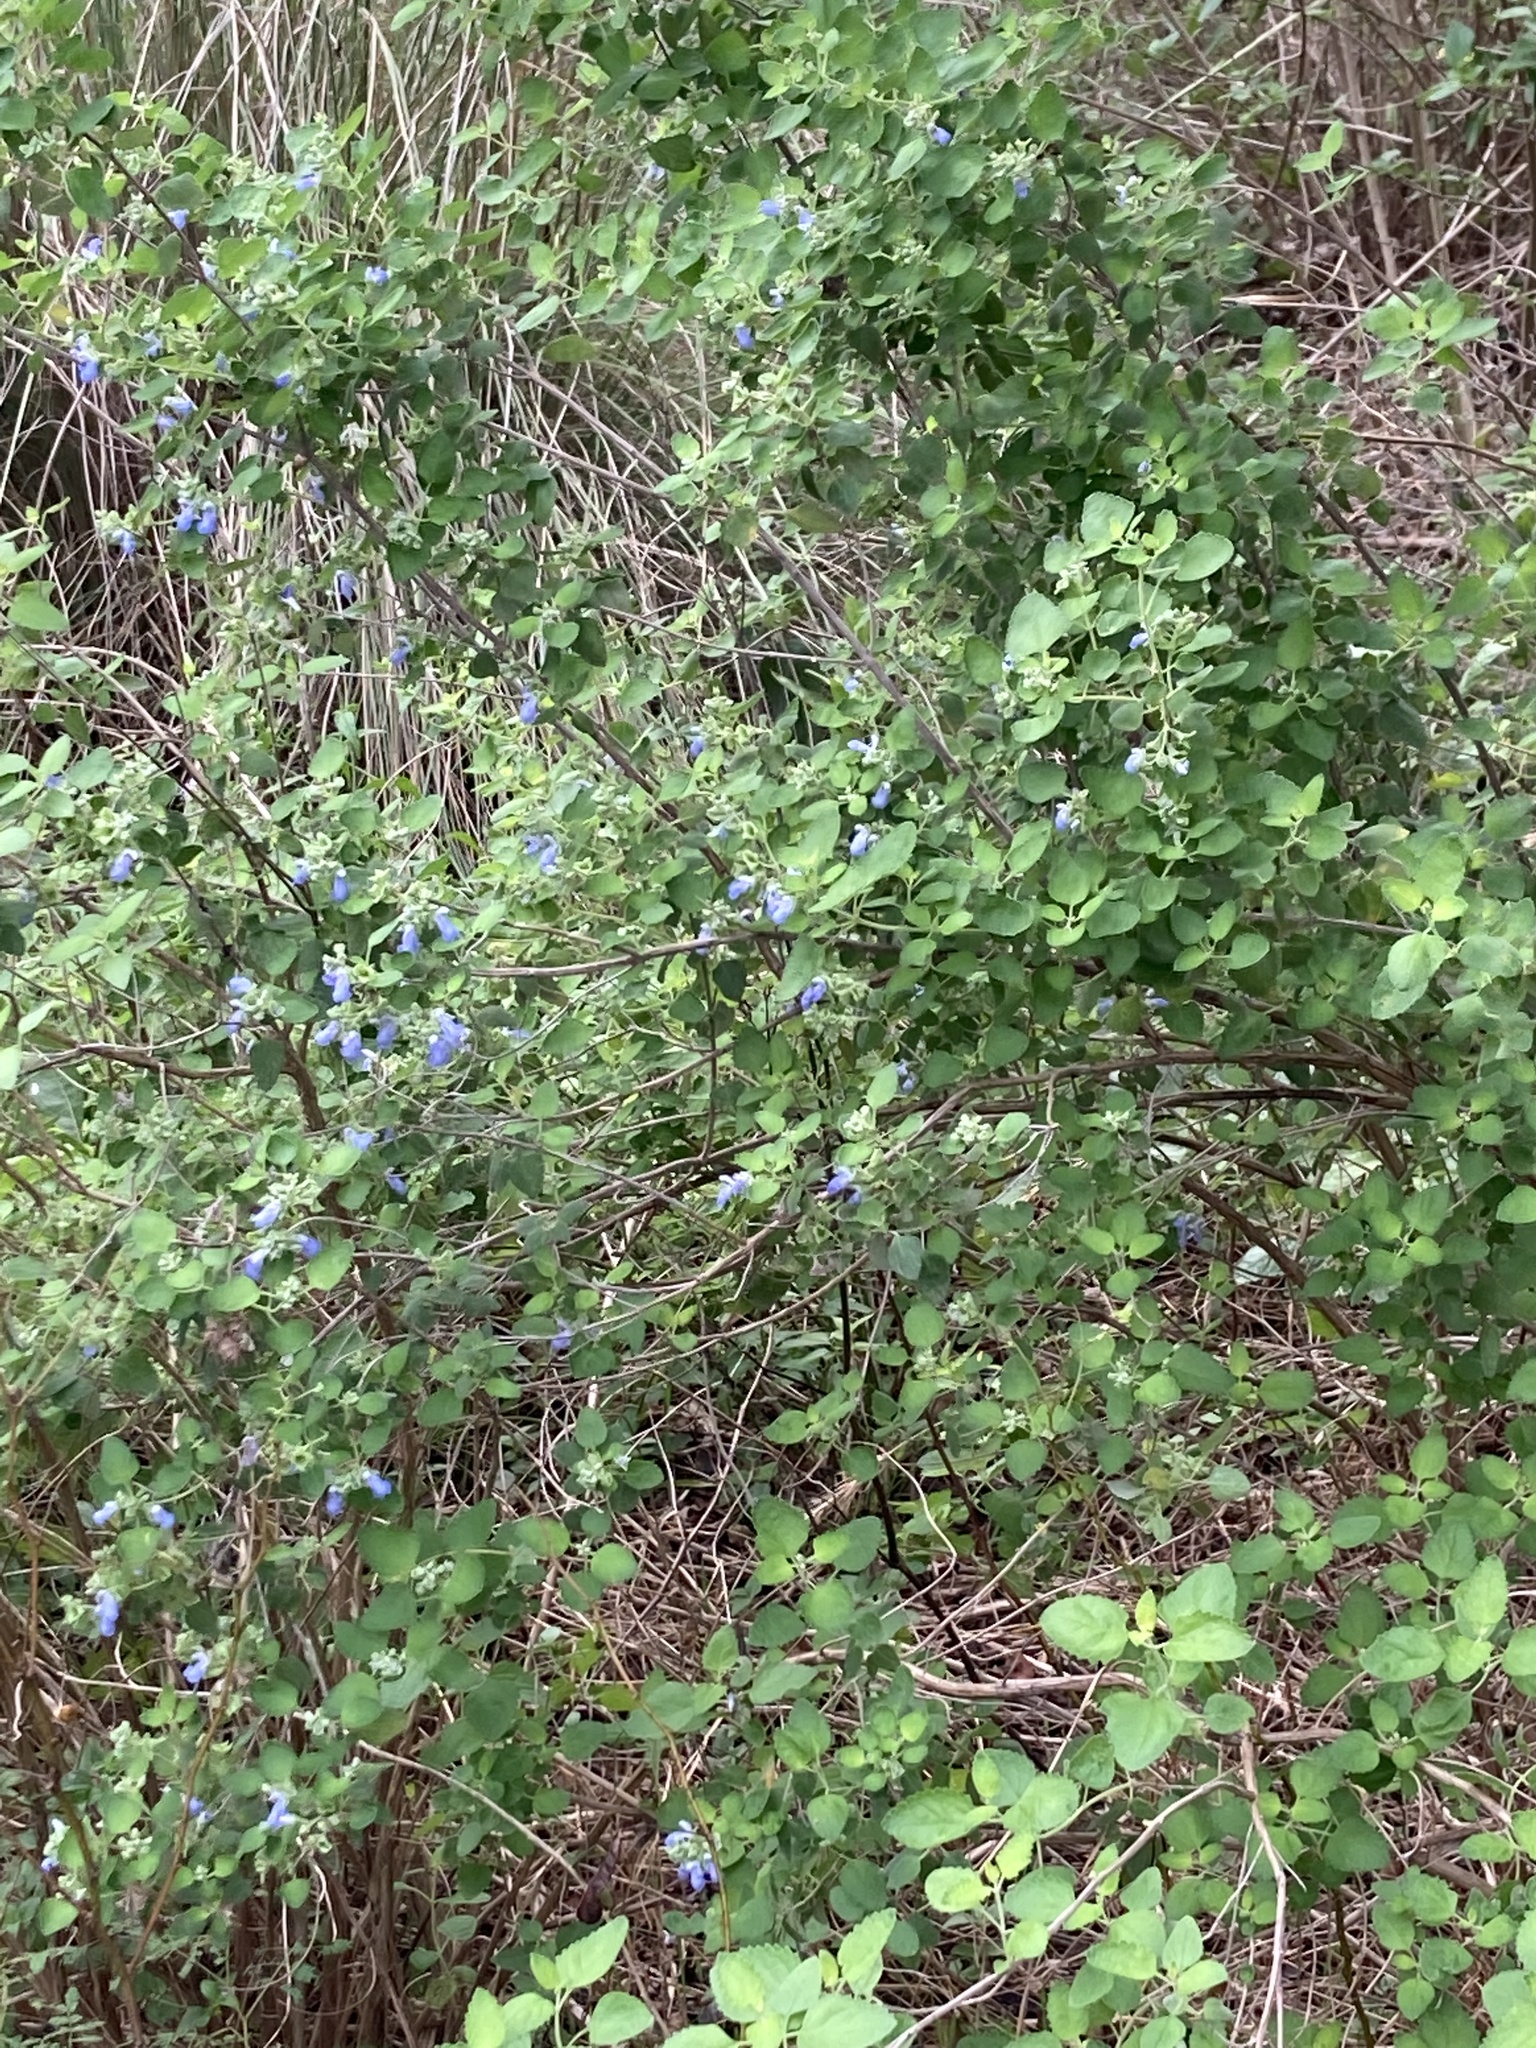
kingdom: Plantae
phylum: Tracheophyta
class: Magnoliopsida
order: Lamiales
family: Lamiaceae
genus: Salvia
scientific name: Salvia ballotiflora
